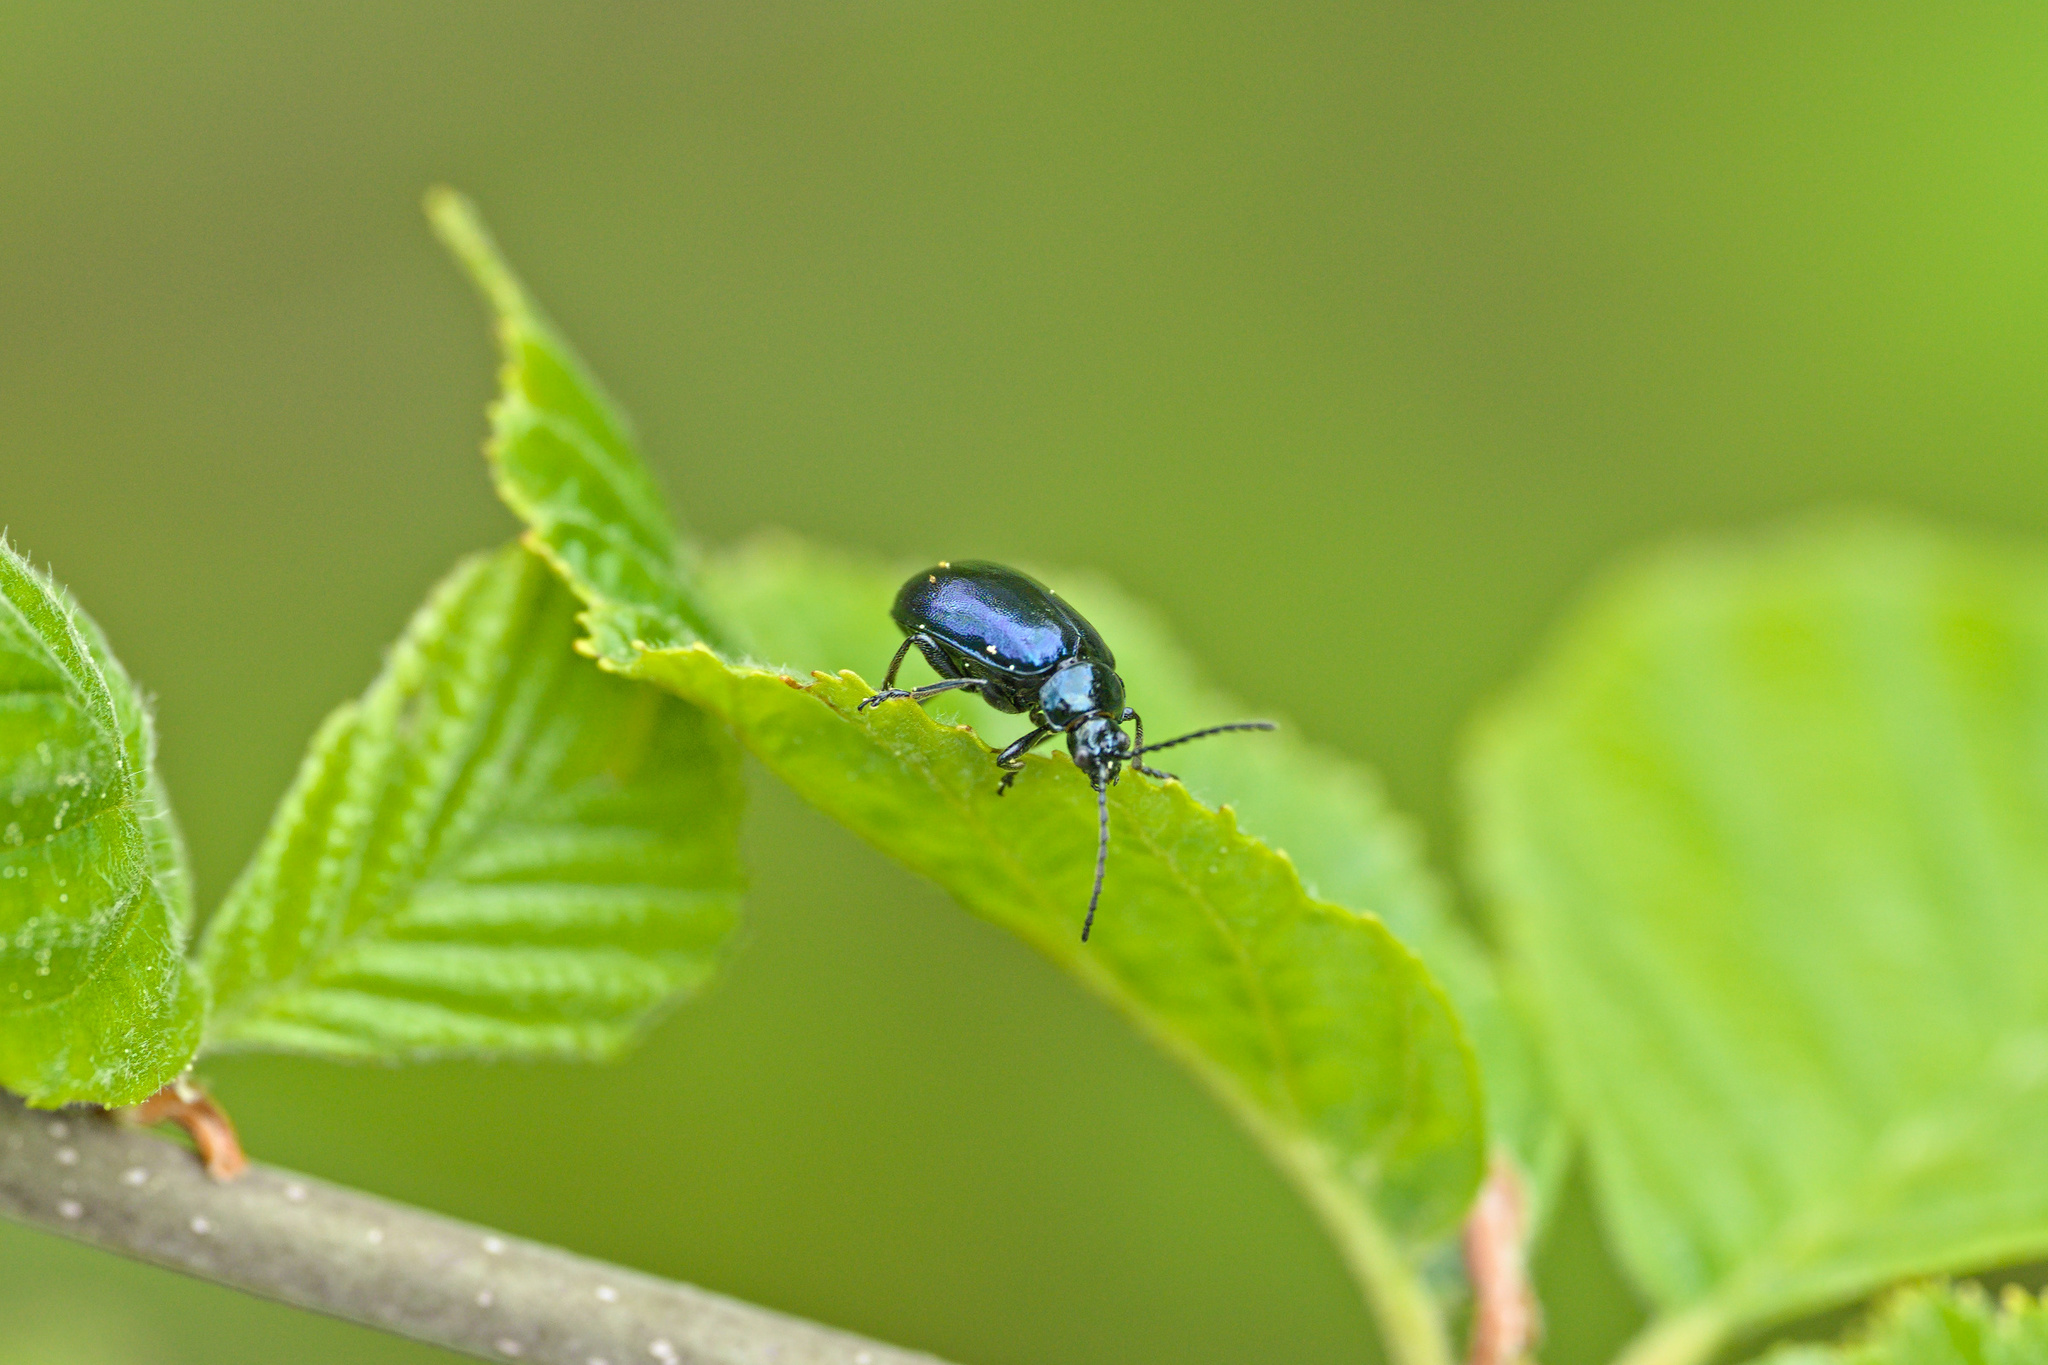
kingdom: Animalia
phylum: Arthropoda
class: Insecta
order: Coleoptera
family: Chrysomelidae
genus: Agelastica
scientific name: Agelastica alni
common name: Alder leaf beetle
